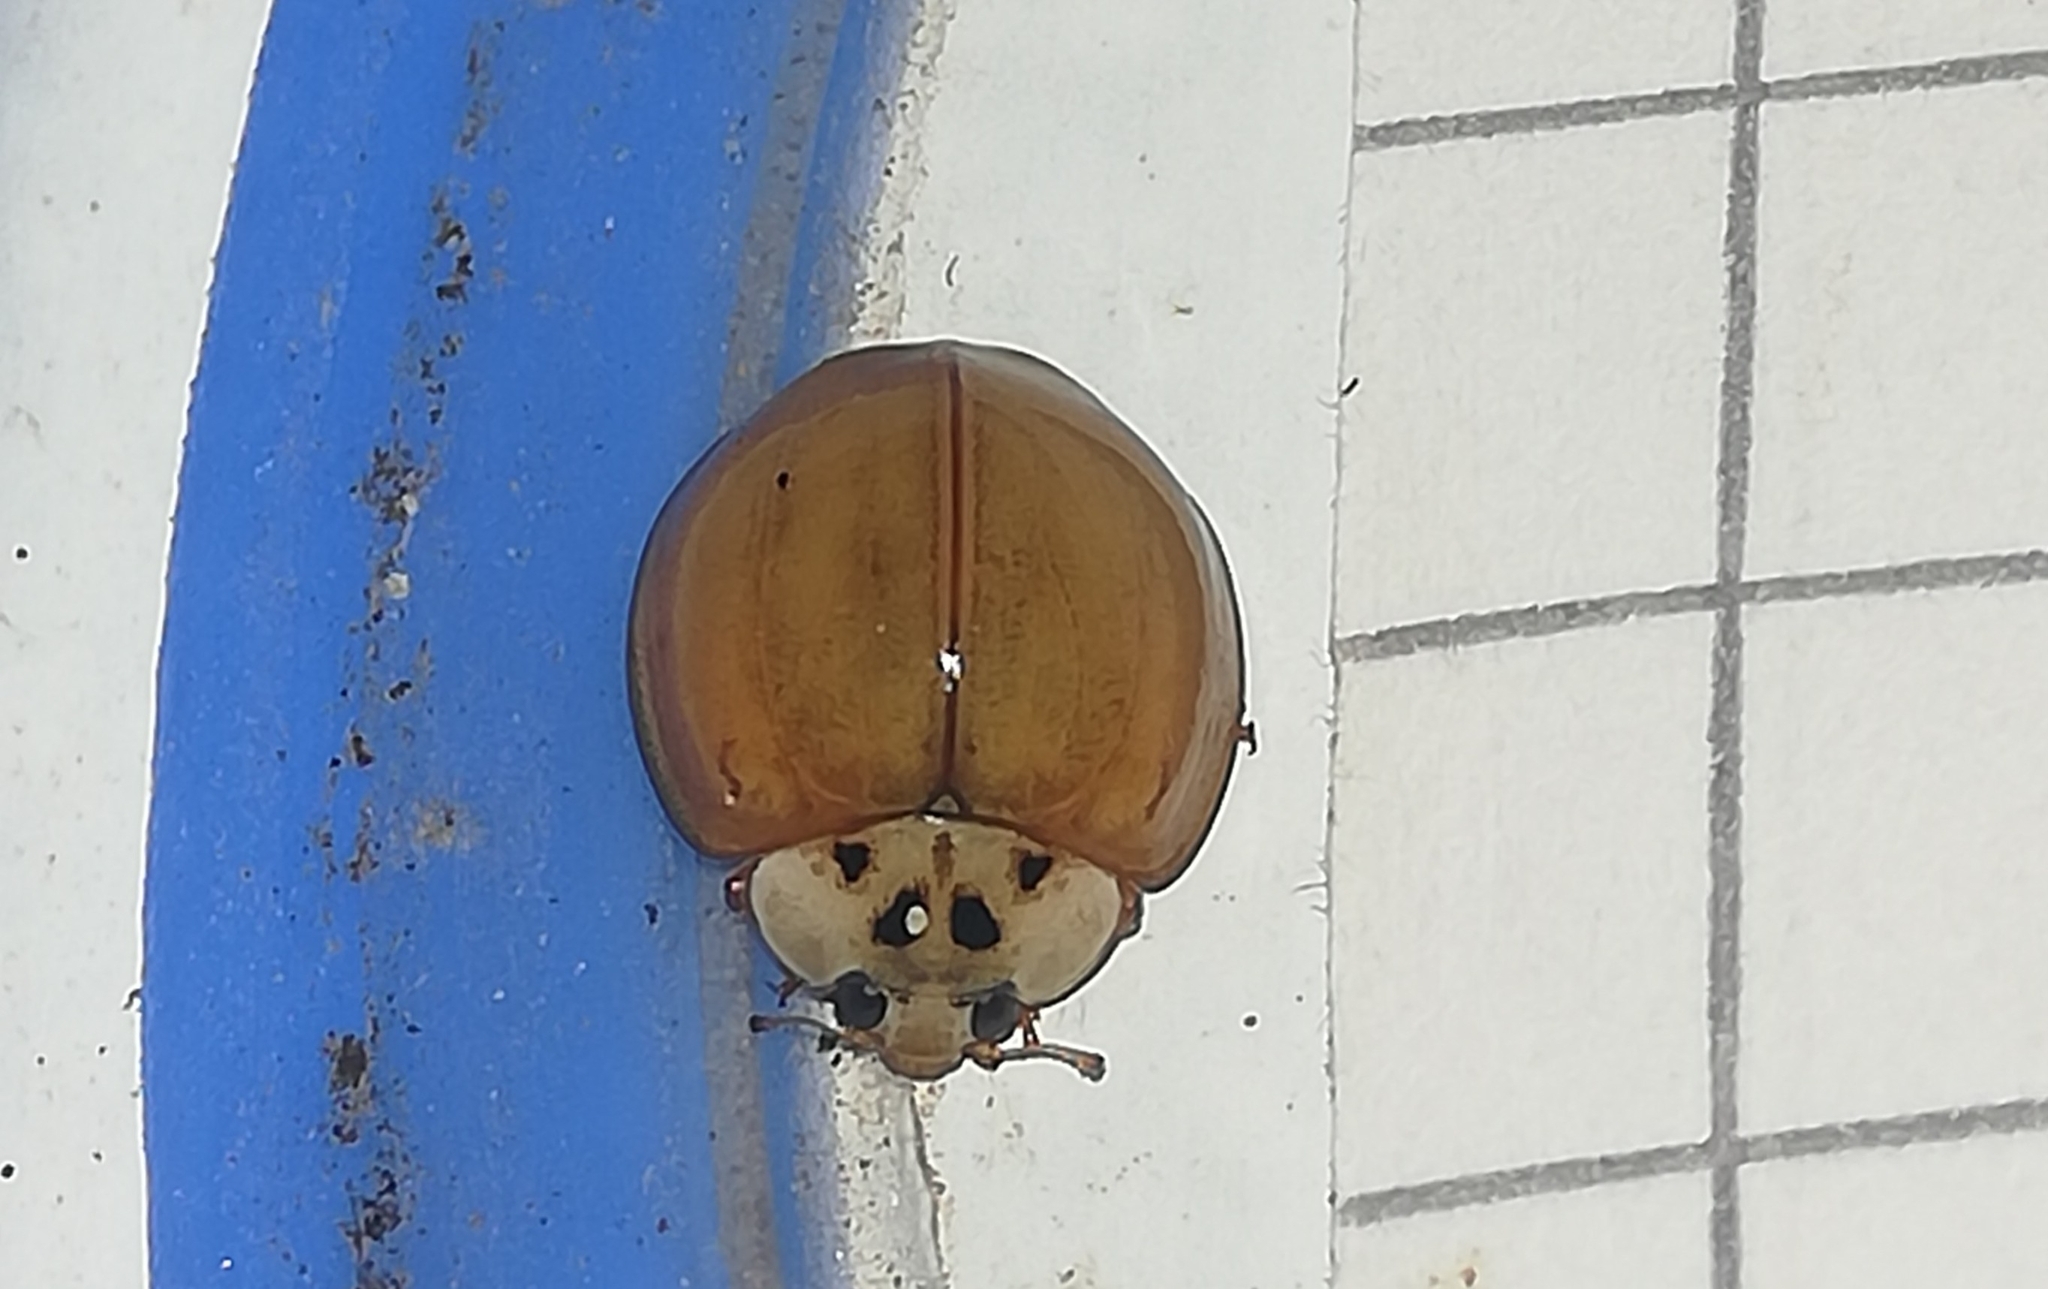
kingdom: Animalia
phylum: Arthropoda
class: Insecta
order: Coleoptera
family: Coccinellidae
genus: Harmonia
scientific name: Harmonia axyridis
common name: Harlequin ladybird
